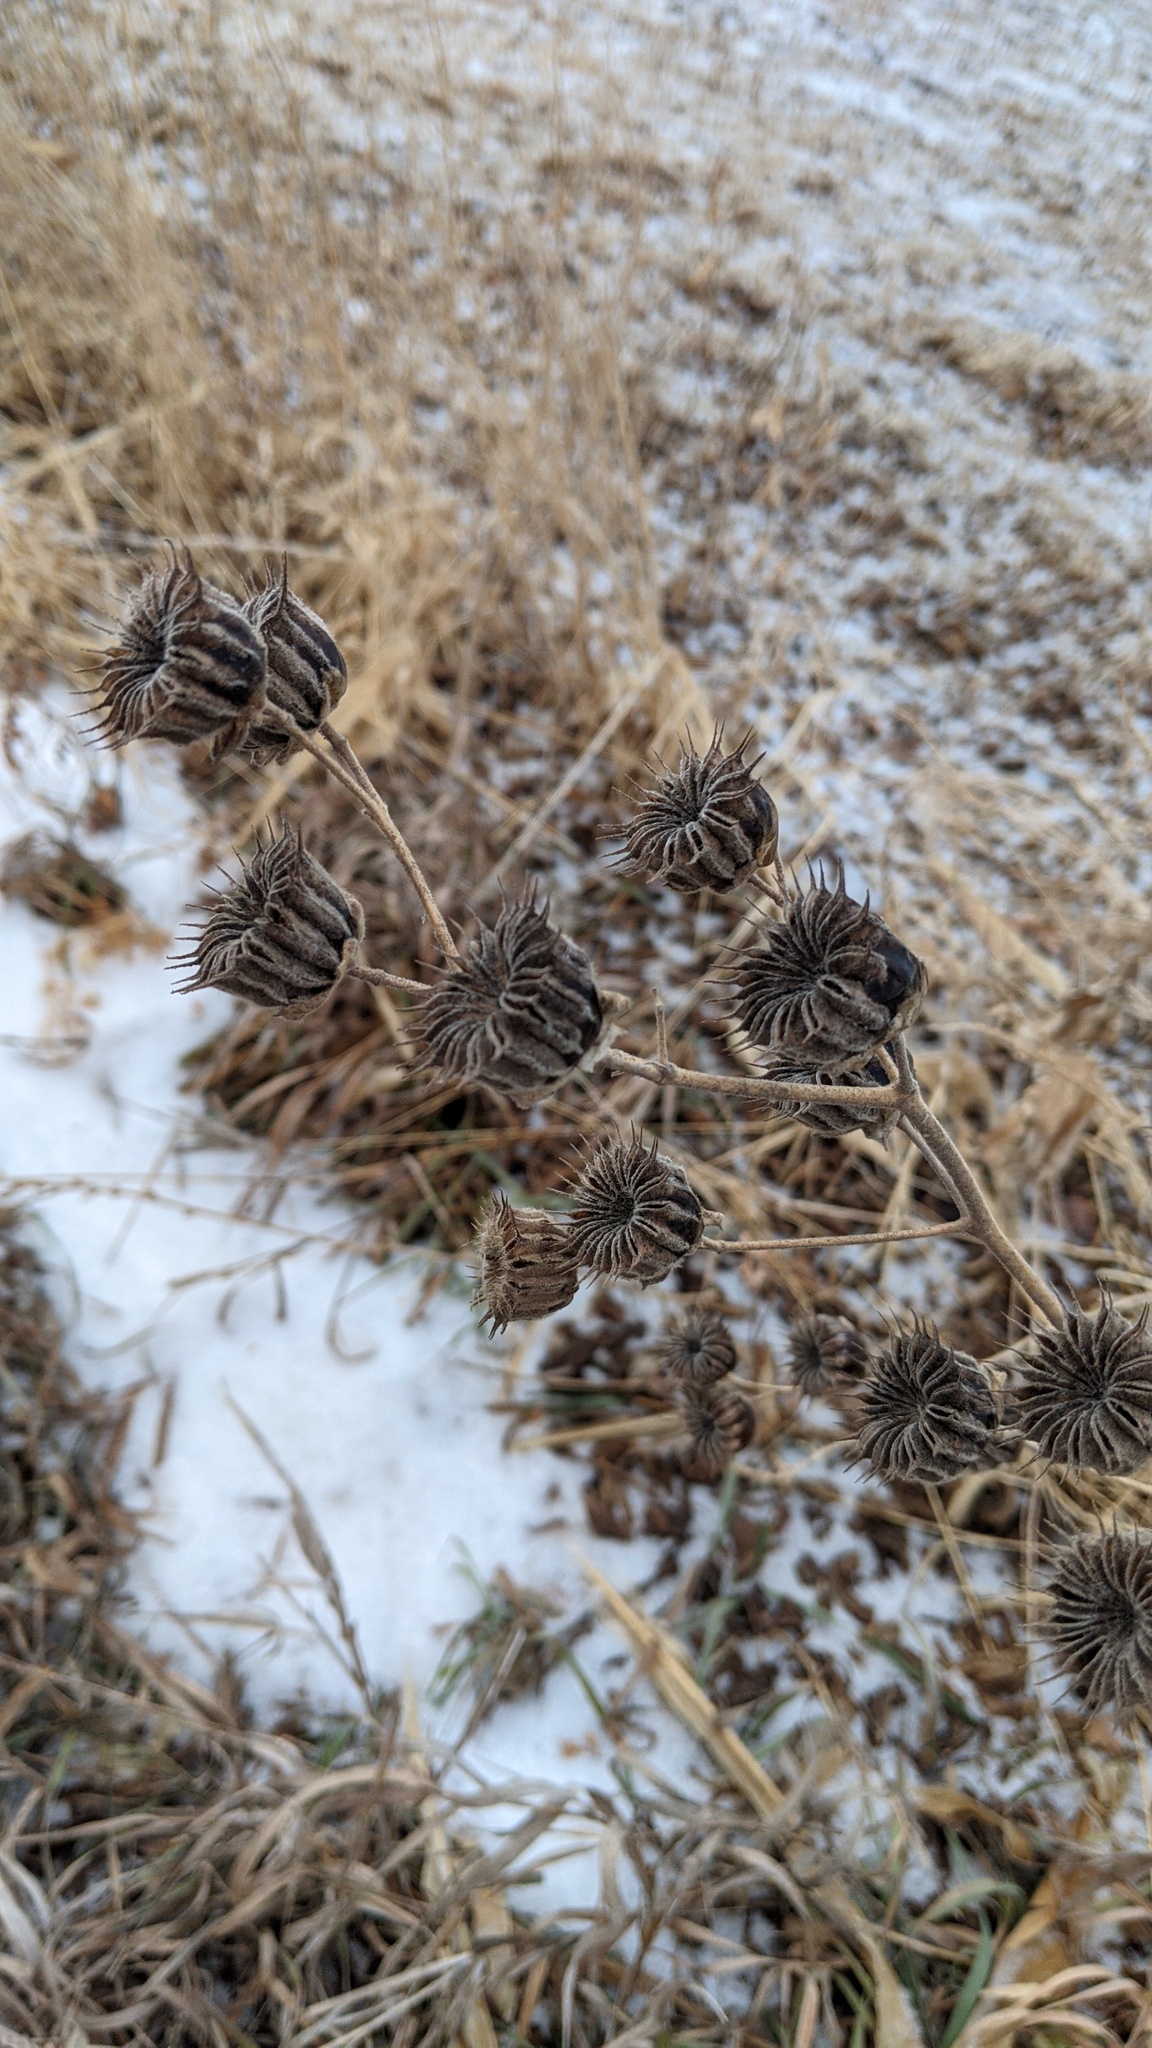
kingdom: Plantae
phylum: Tracheophyta
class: Magnoliopsida
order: Malvales
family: Malvaceae
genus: Abutilon
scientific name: Abutilon theophrasti
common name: Velvetleaf
